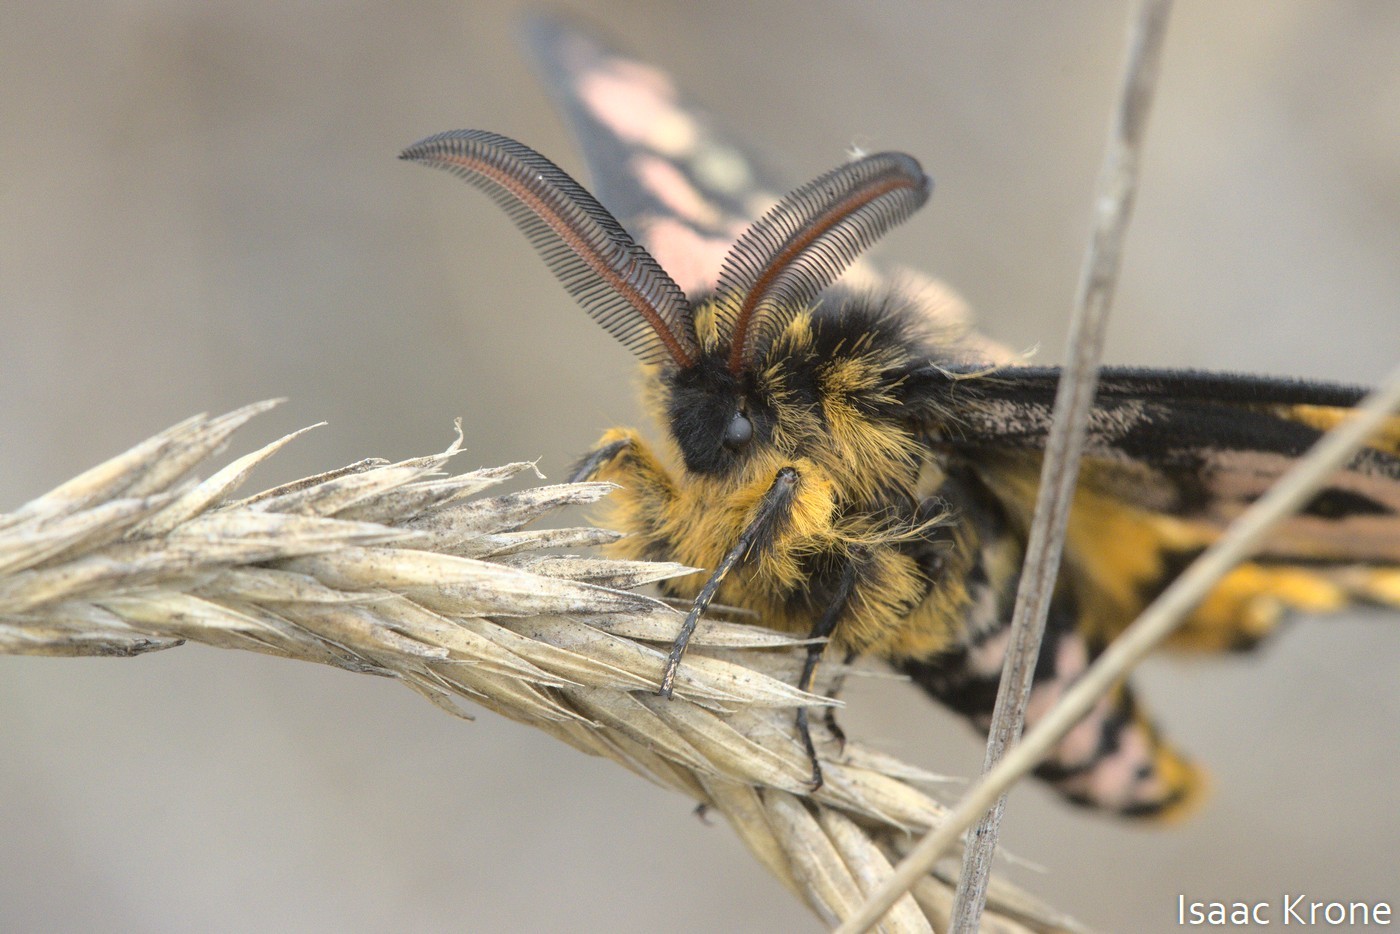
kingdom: Animalia
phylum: Arthropoda
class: Insecta
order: Lepidoptera
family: Saturniidae
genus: Hemileuca
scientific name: Hemileuca eglanterina
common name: Western sheepmoth
